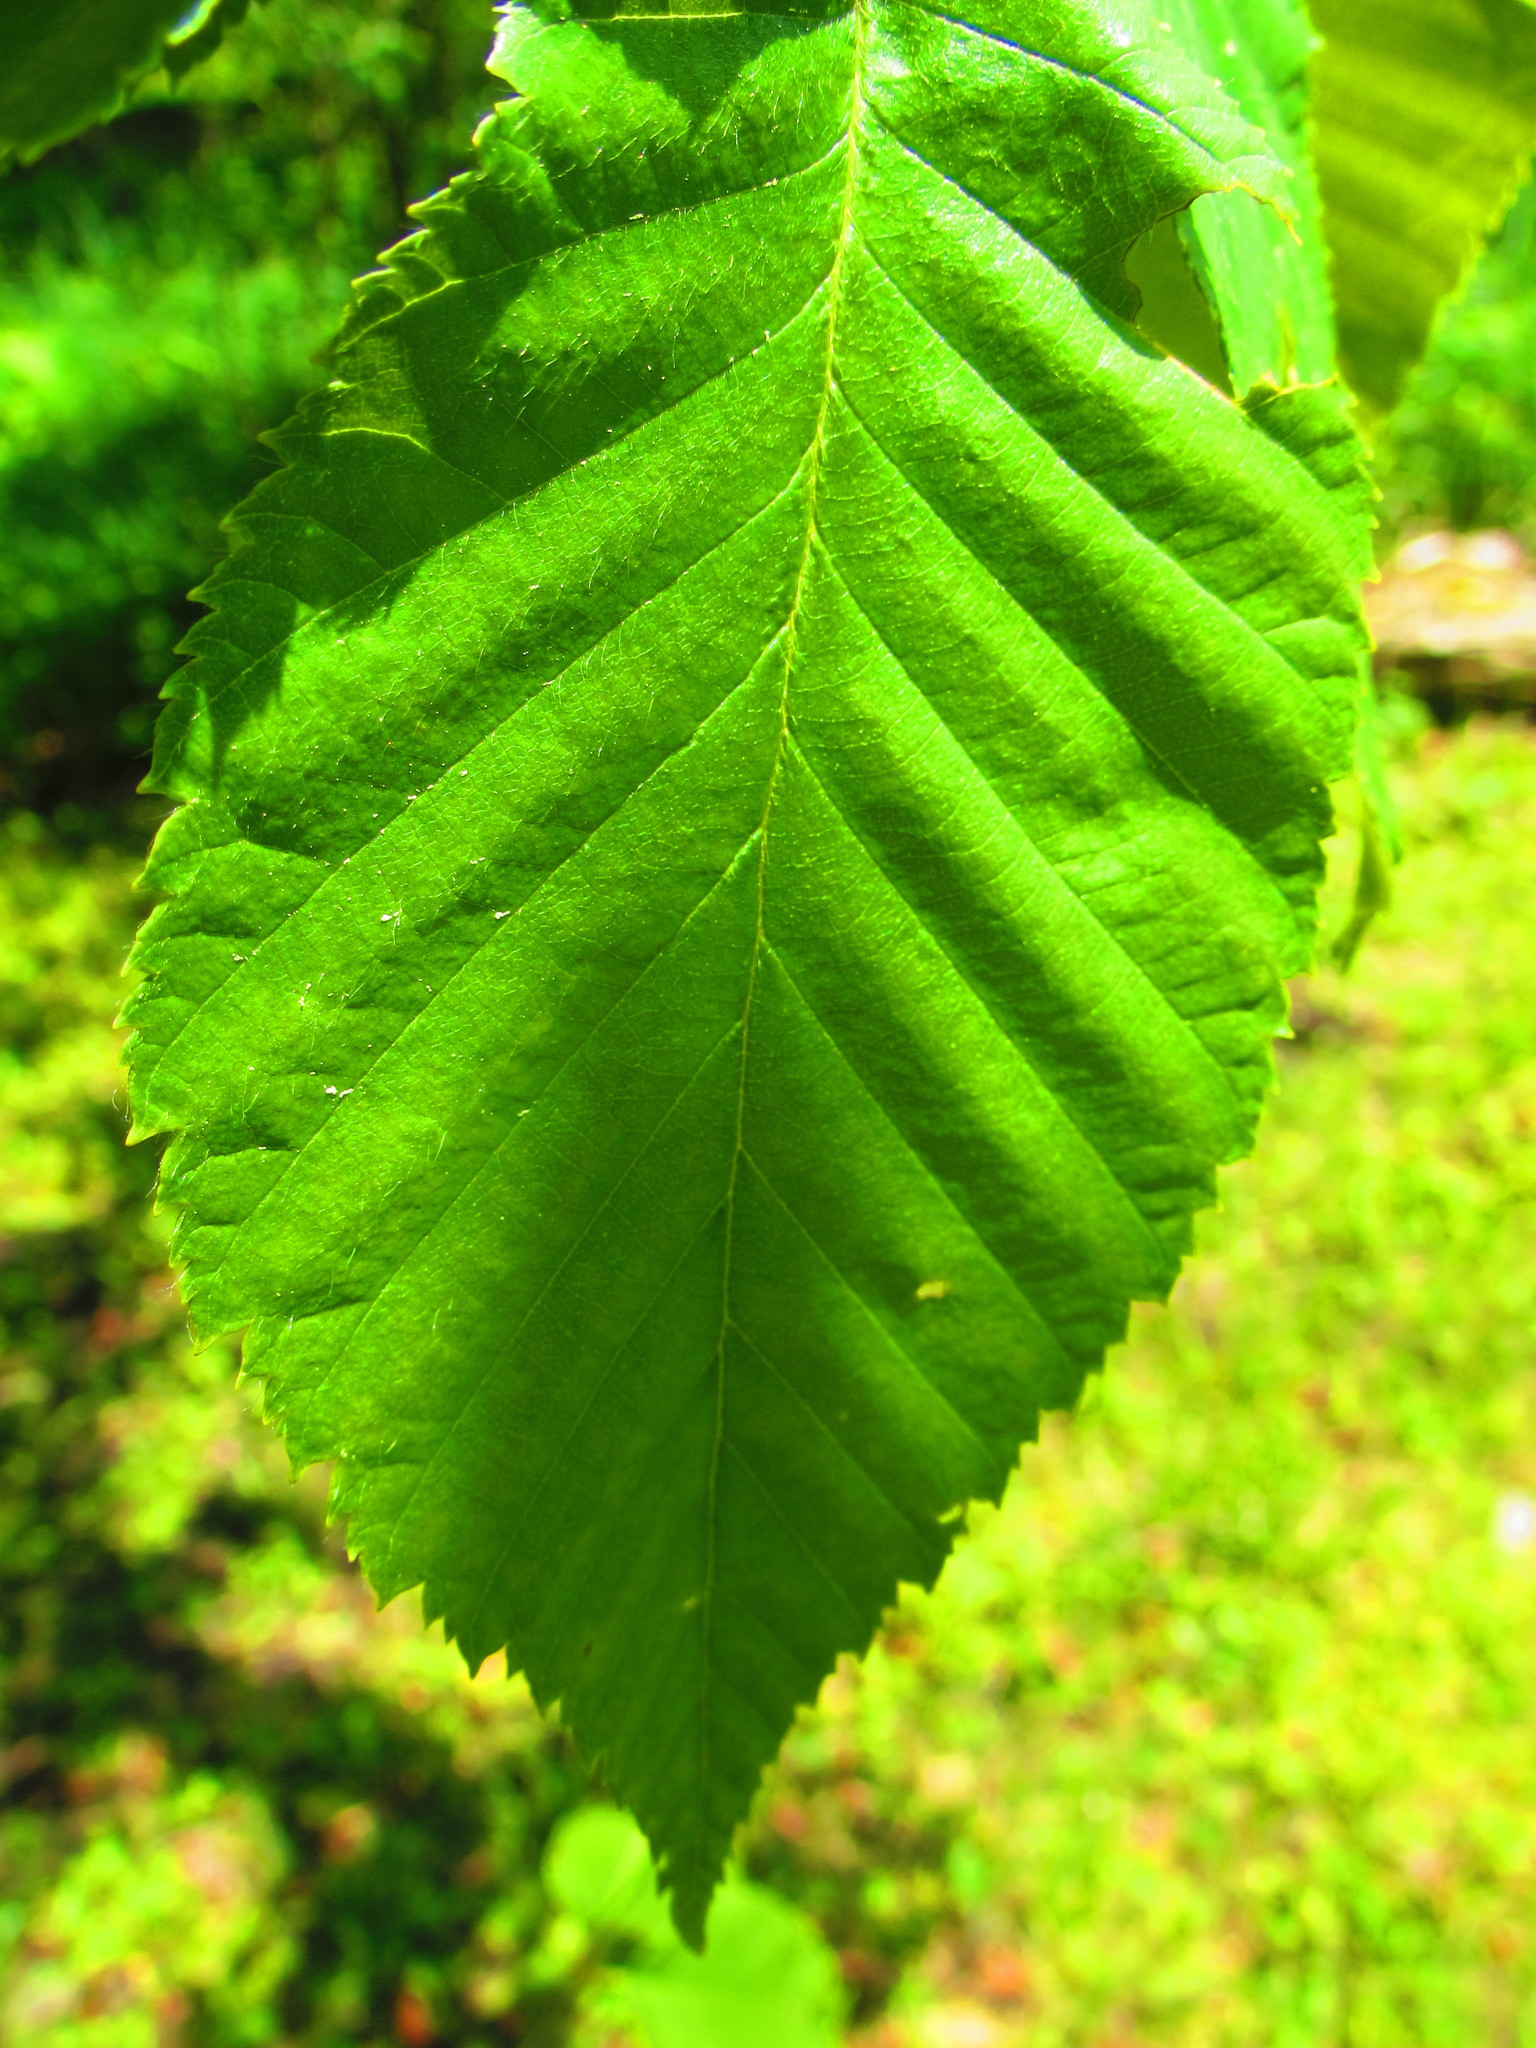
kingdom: Plantae
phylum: Tracheophyta
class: Magnoliopsida
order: Fagales
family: Betulaceae
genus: Betula
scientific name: Betula alleghaniensis
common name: Yellow birch
